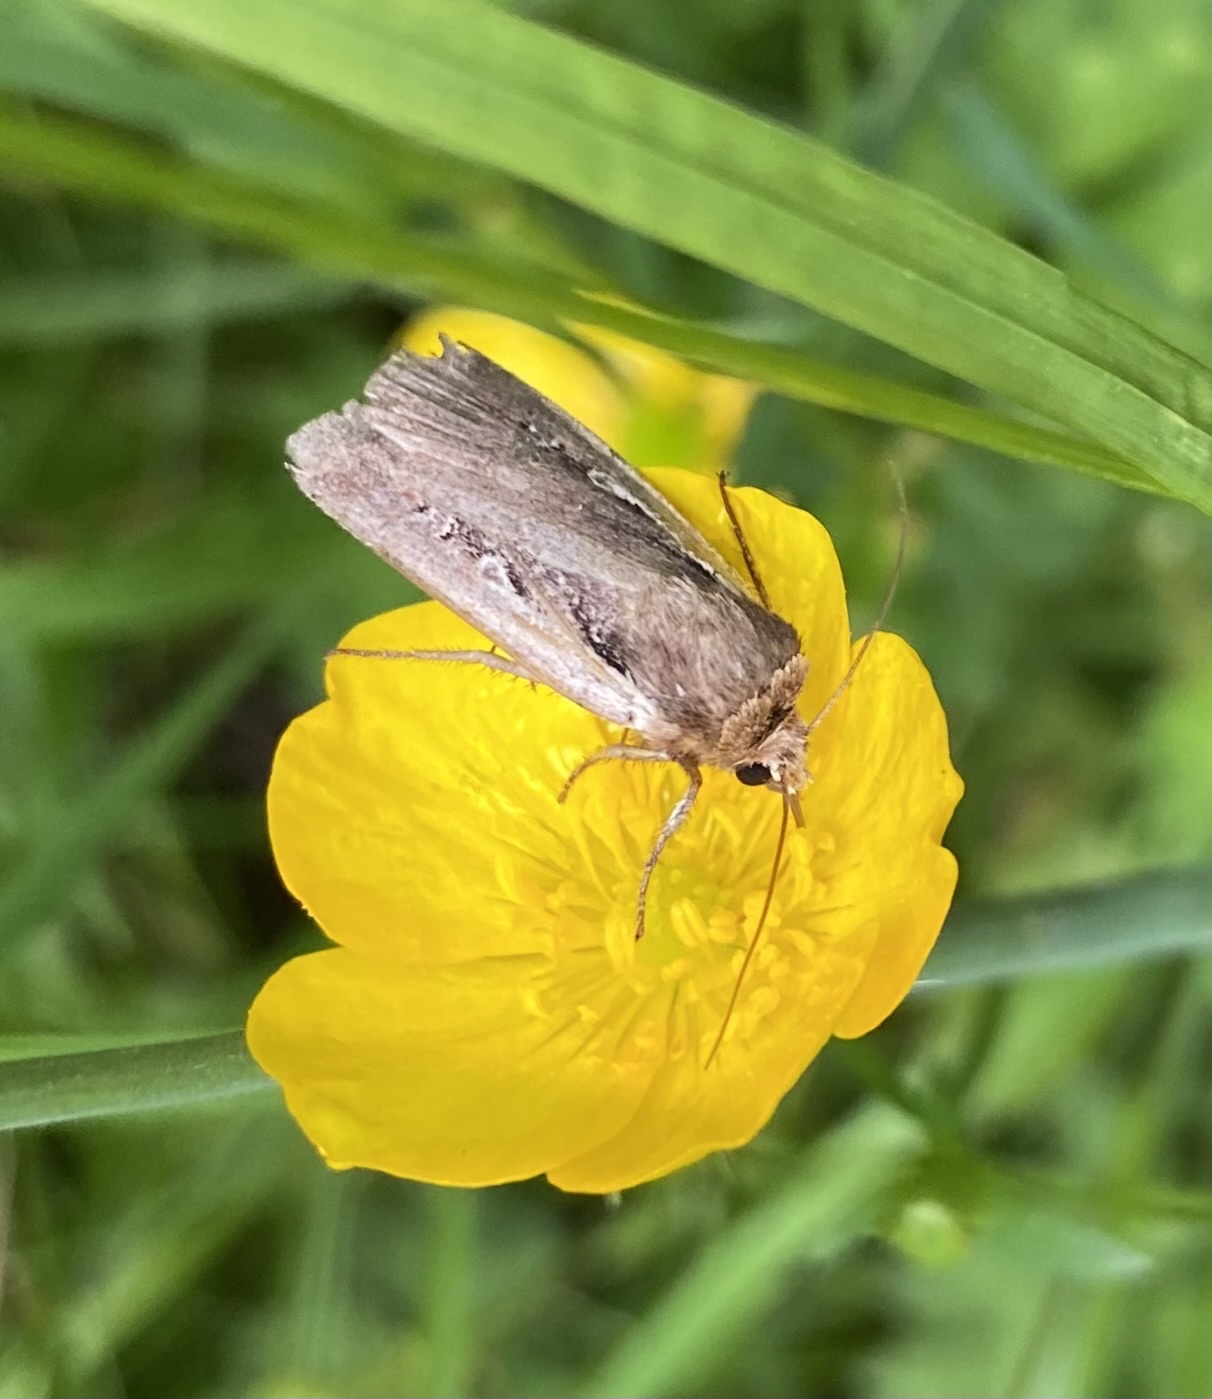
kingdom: Animalia
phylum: Arthropoda
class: Insecta
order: Lepidoptera
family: Noctuidae
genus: Ochropleura
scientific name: Ochropleura plecta
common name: Flame shoulder
